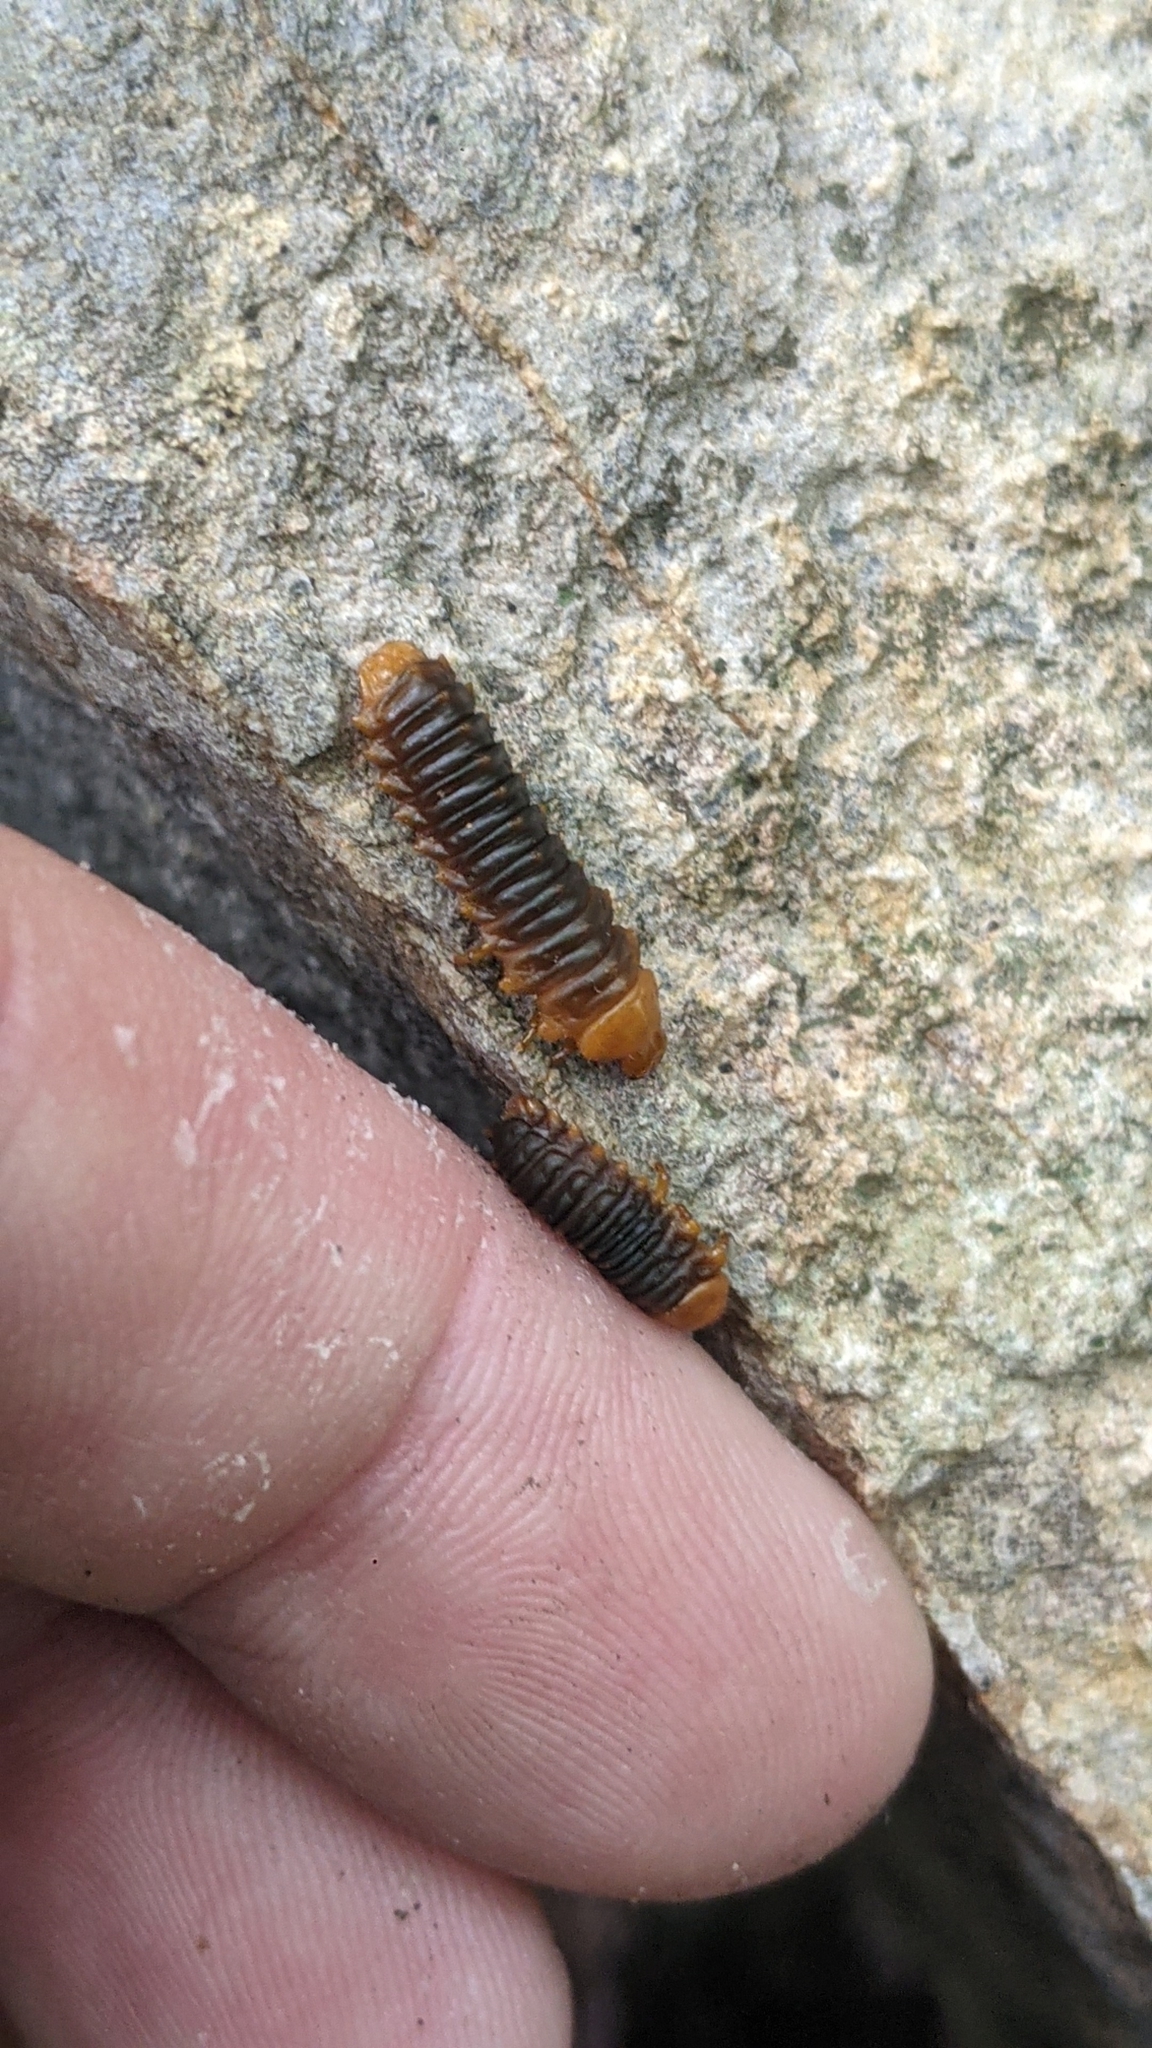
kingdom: Animalia
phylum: Arthropoda
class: Insecta
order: Coleoptera
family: Chrysomelidae
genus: Monocesta
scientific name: Monocesta coryli
